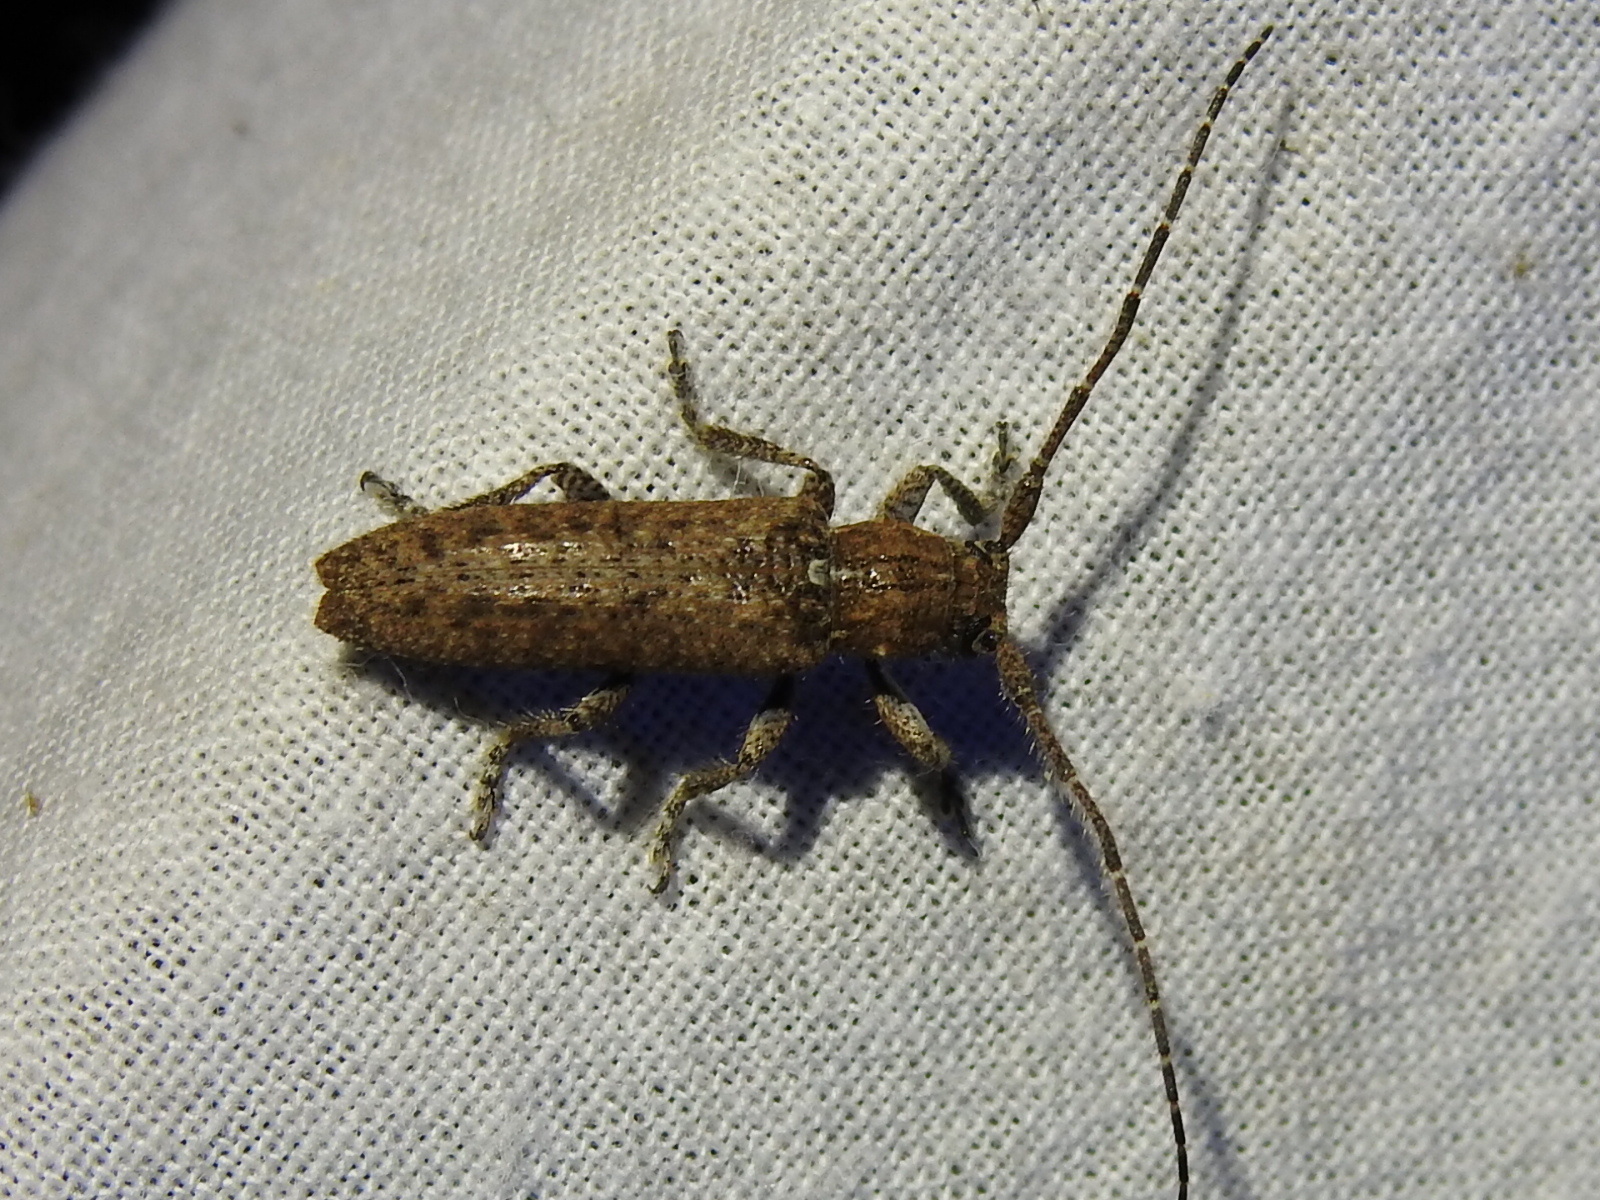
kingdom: Animalia
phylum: Arthropoda
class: Insecta
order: Coleoptera
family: Cerambycidae
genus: Ataxia
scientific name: Ataxia crypta
